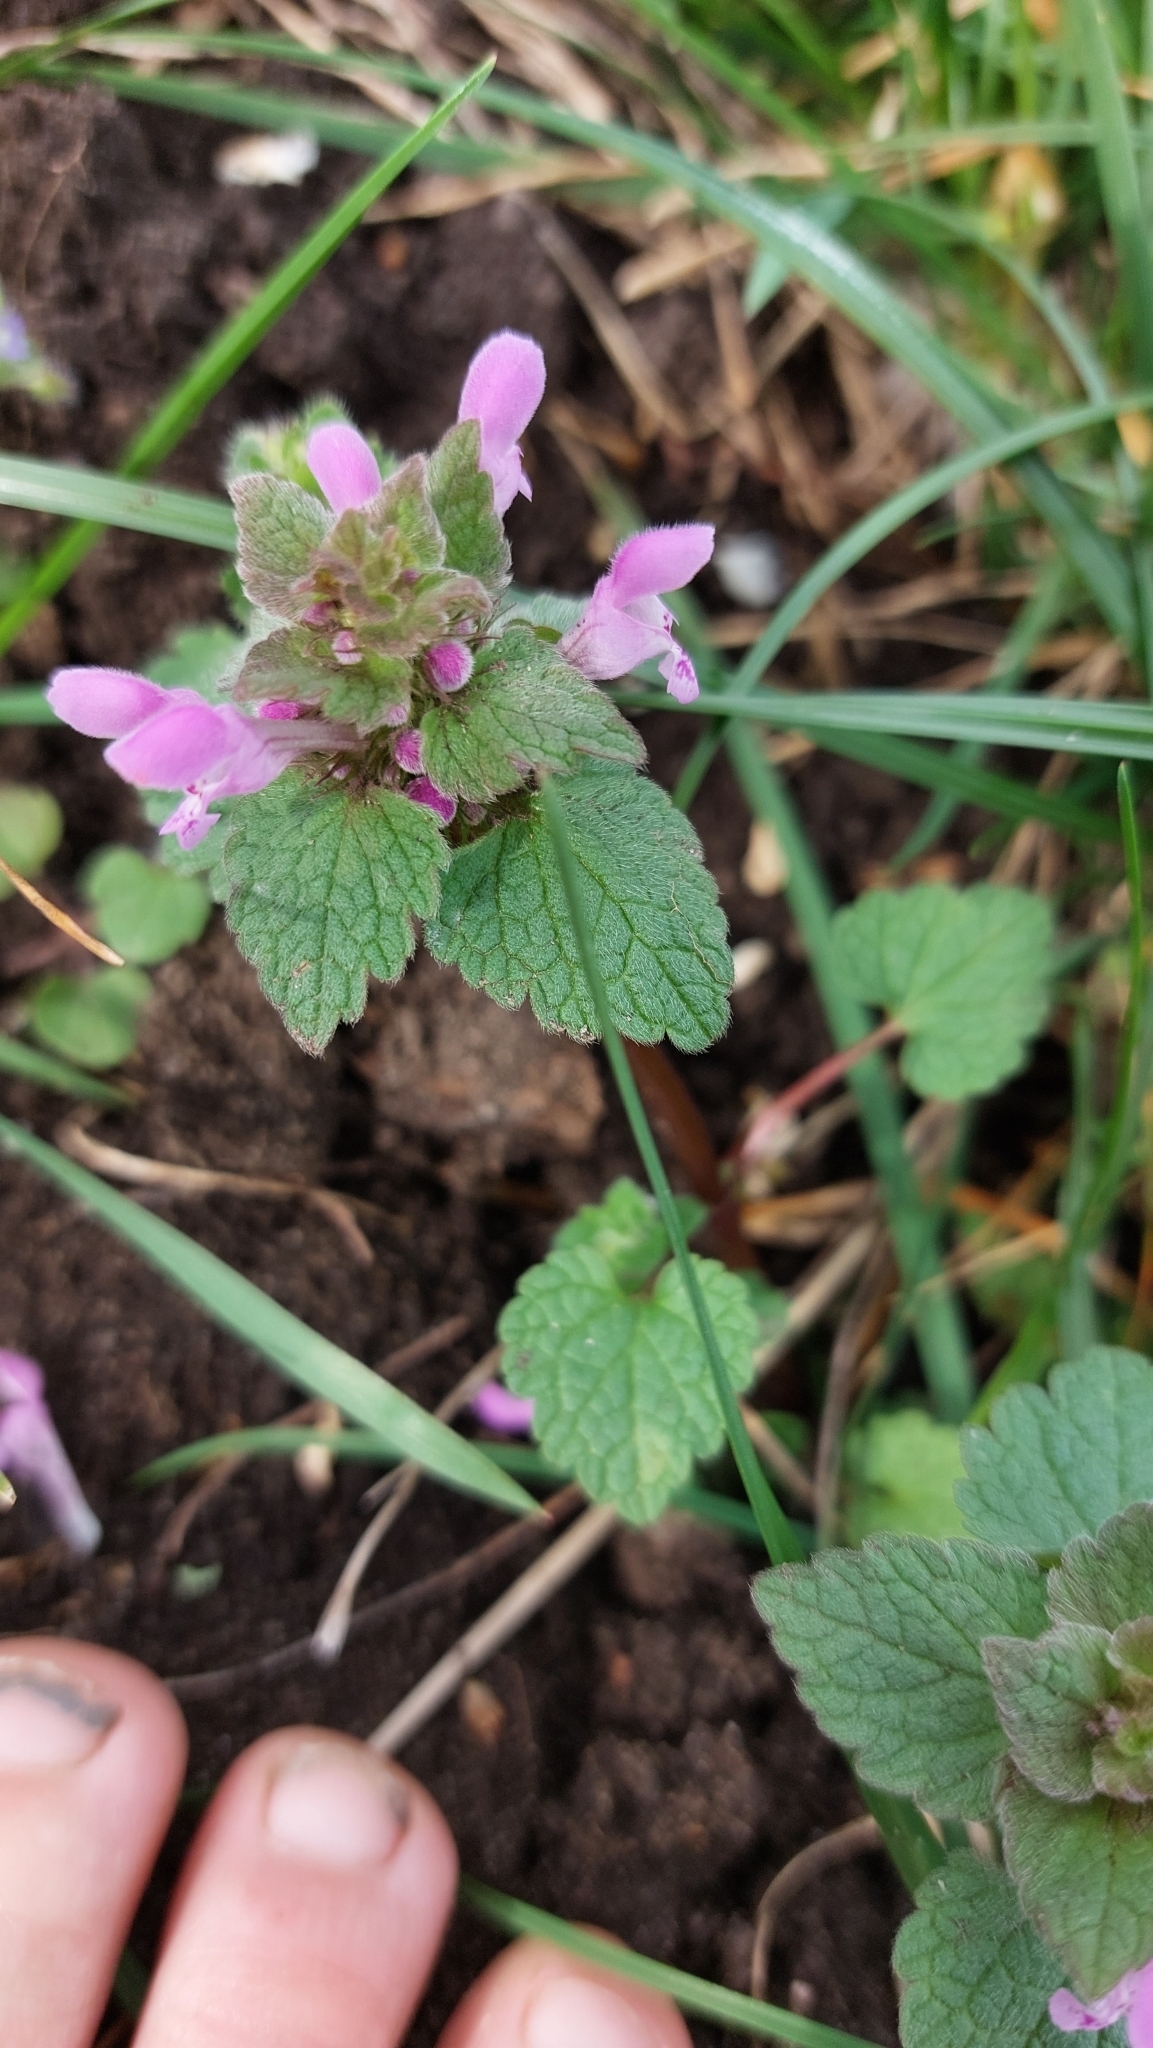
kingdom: Plantae
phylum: Tracheophyta
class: Magnoliopsida
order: Lamiales
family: Lamiaceae
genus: Lamium
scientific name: Lamium purpureum
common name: Red dead-nettle
